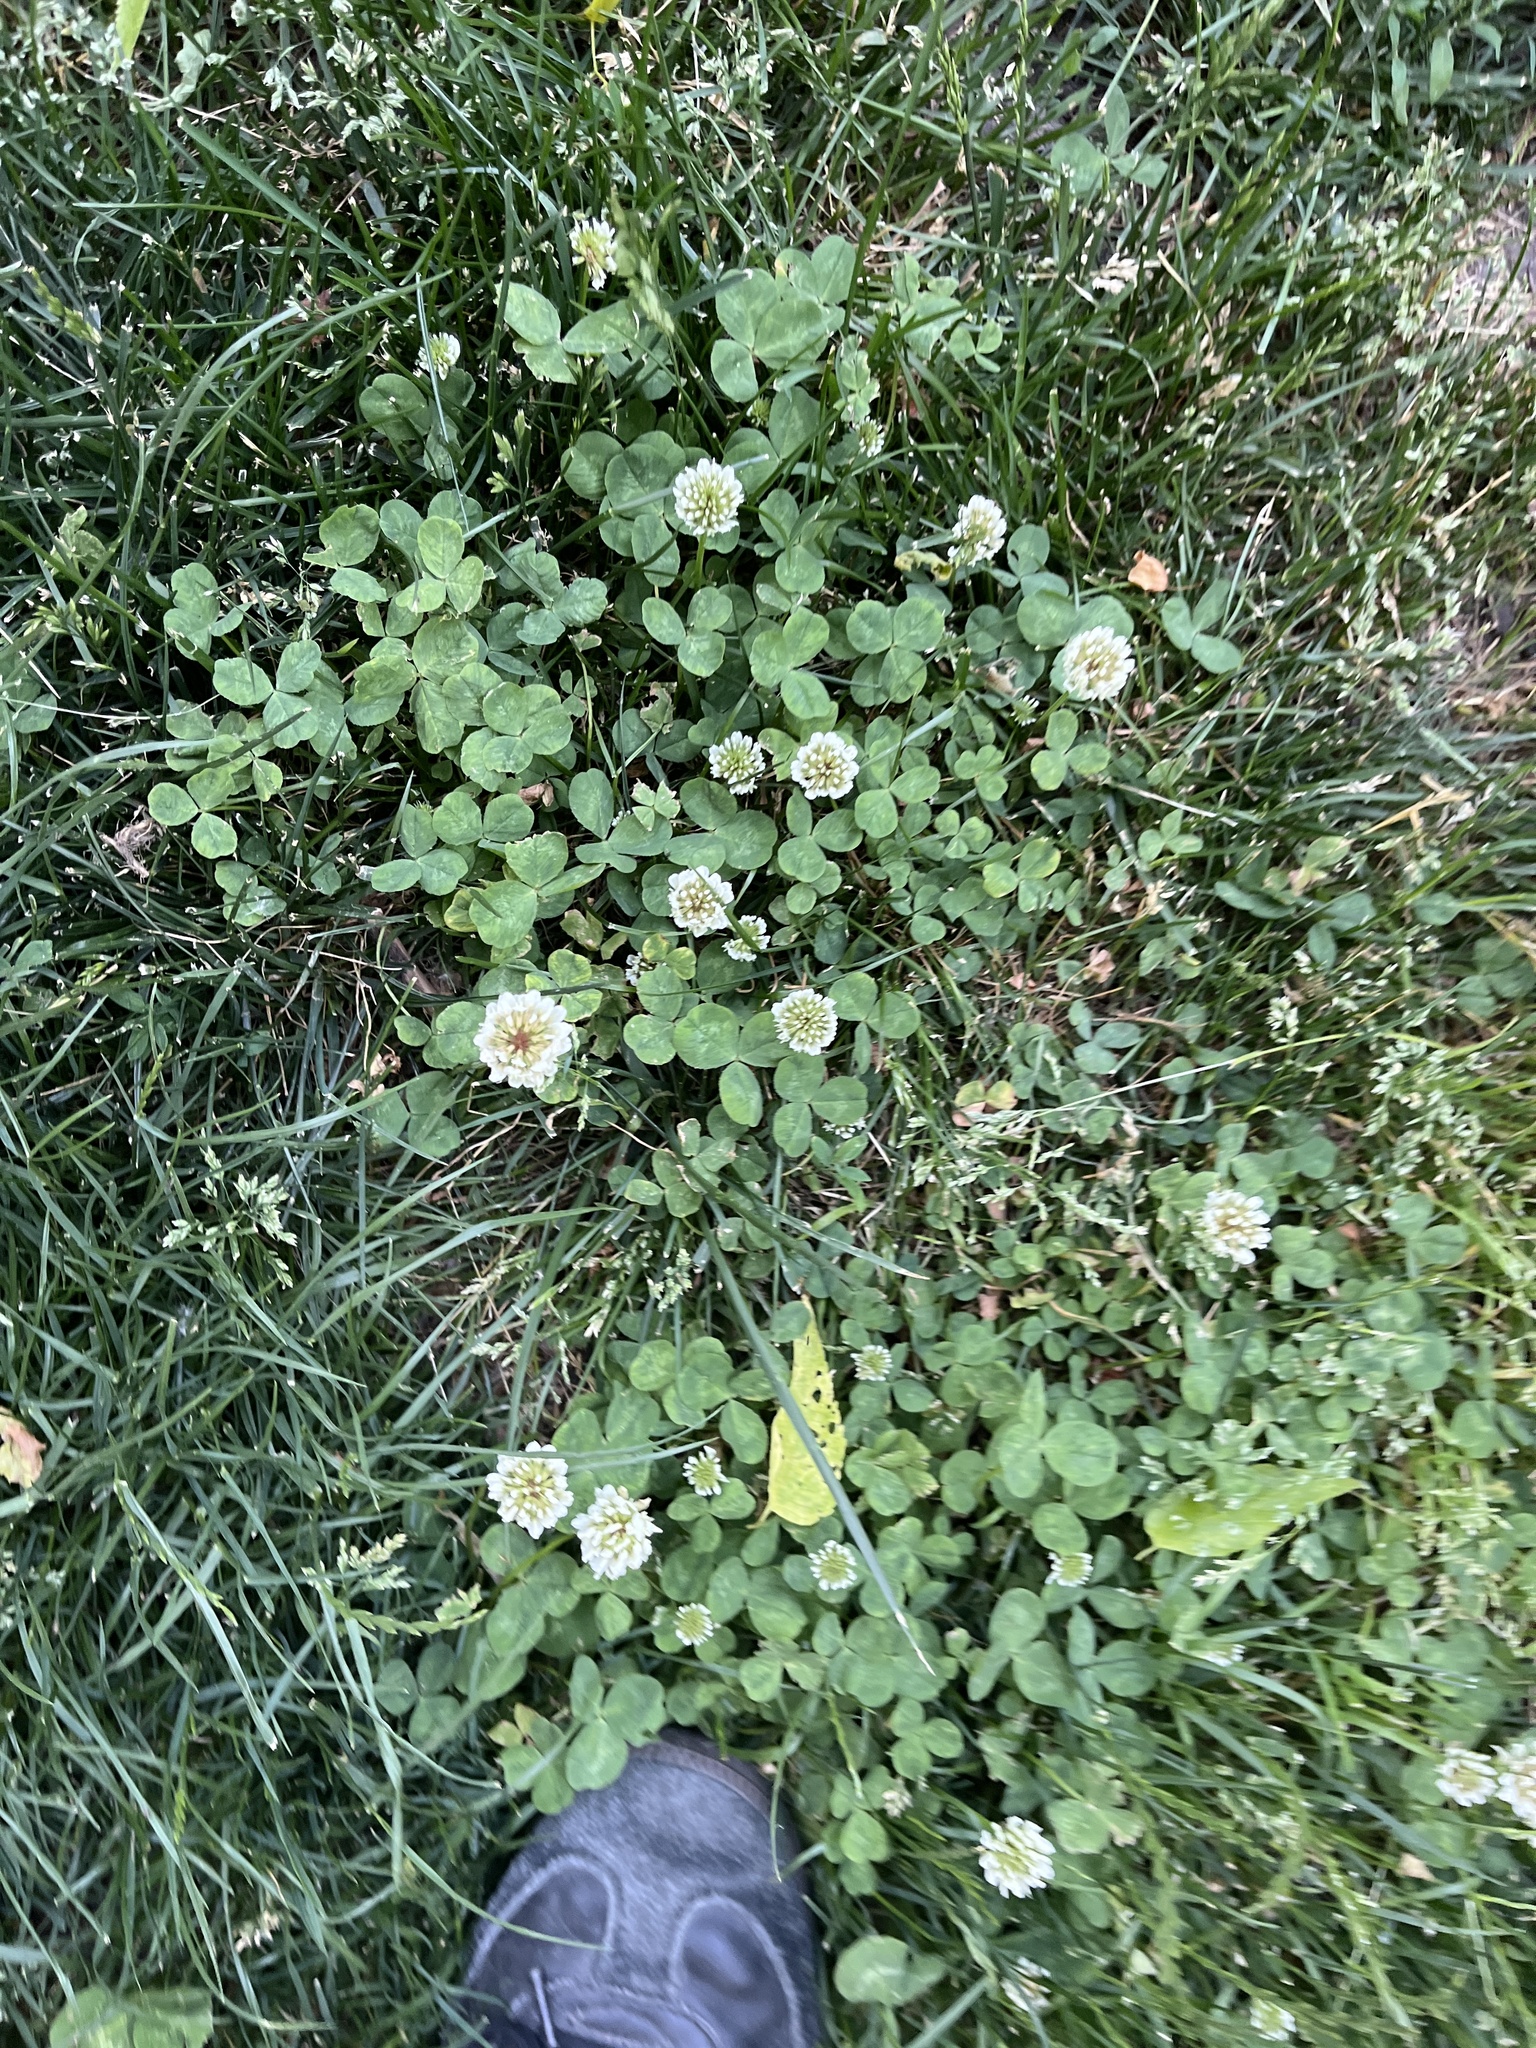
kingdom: Plantae
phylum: Tracheophyta
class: Magnoliopsida
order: Fabales
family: Fabaceae
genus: Trifolium
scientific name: Trifolium repens
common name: White clover
